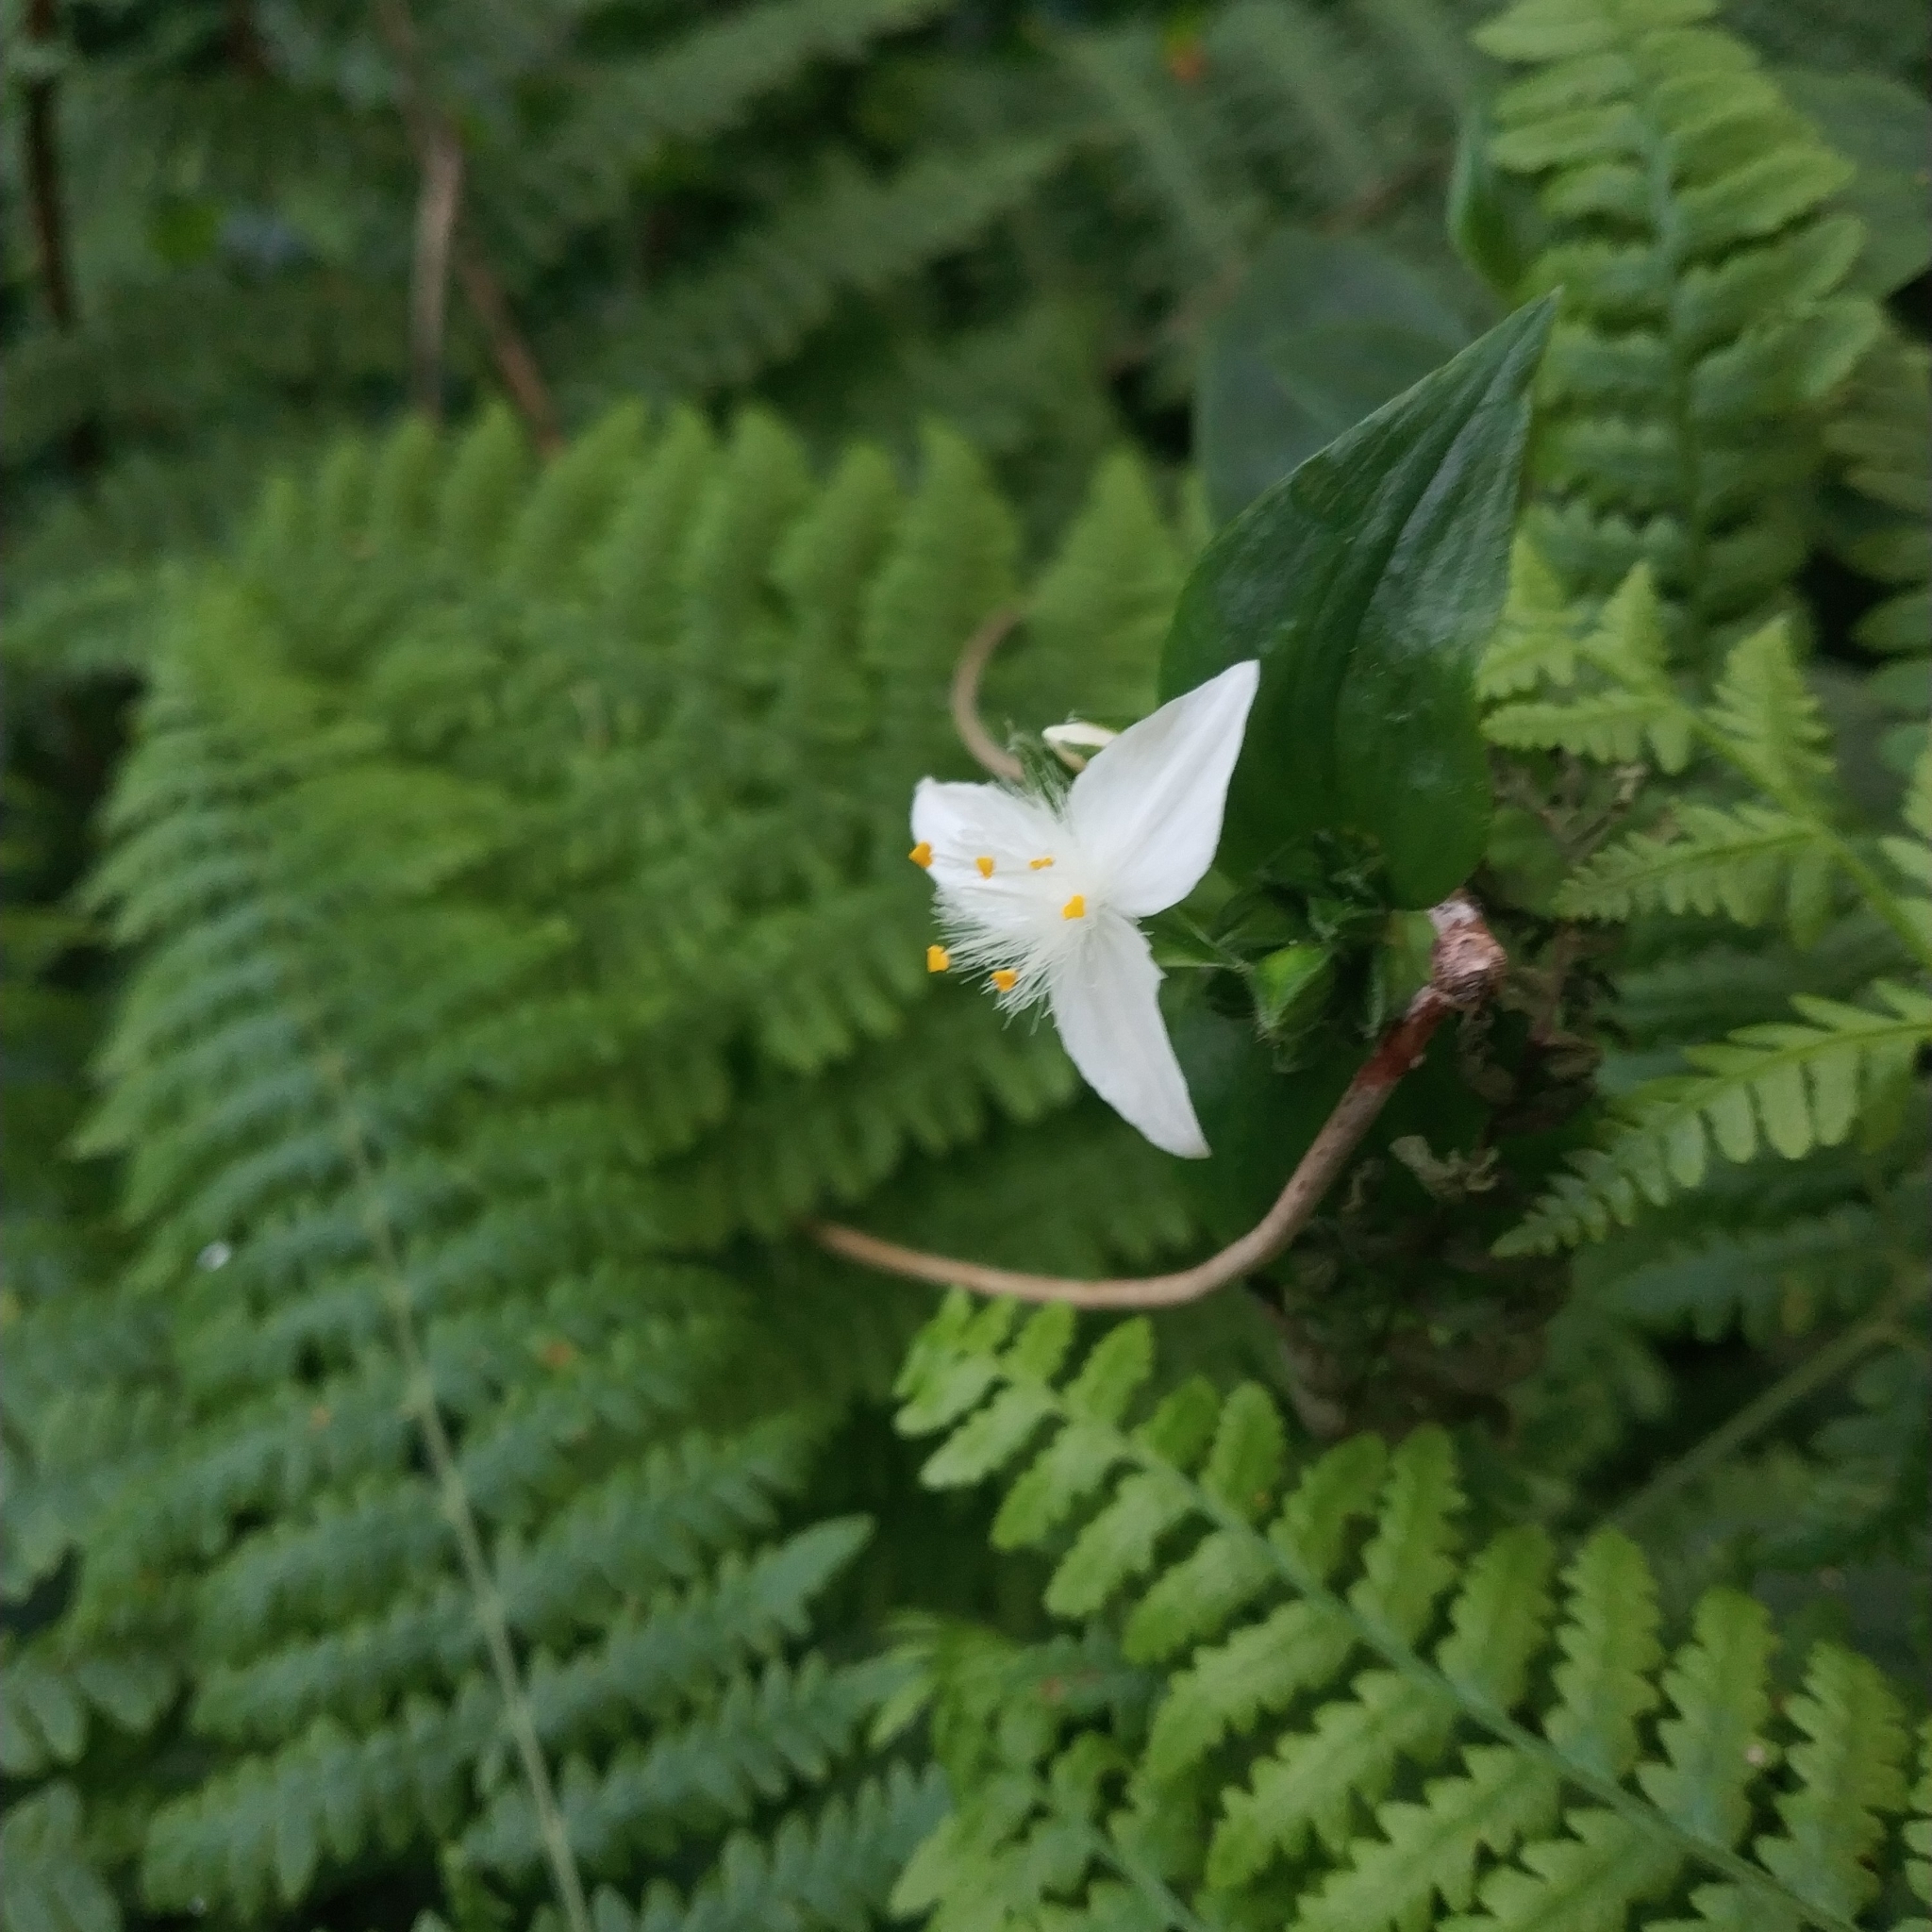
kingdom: Plantae
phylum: Tracheophyta
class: Liliopsida
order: Commelinales
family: Commelinaceae
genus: Tradescantia
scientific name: Tradescantia fluminensis
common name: Wandering-jew
